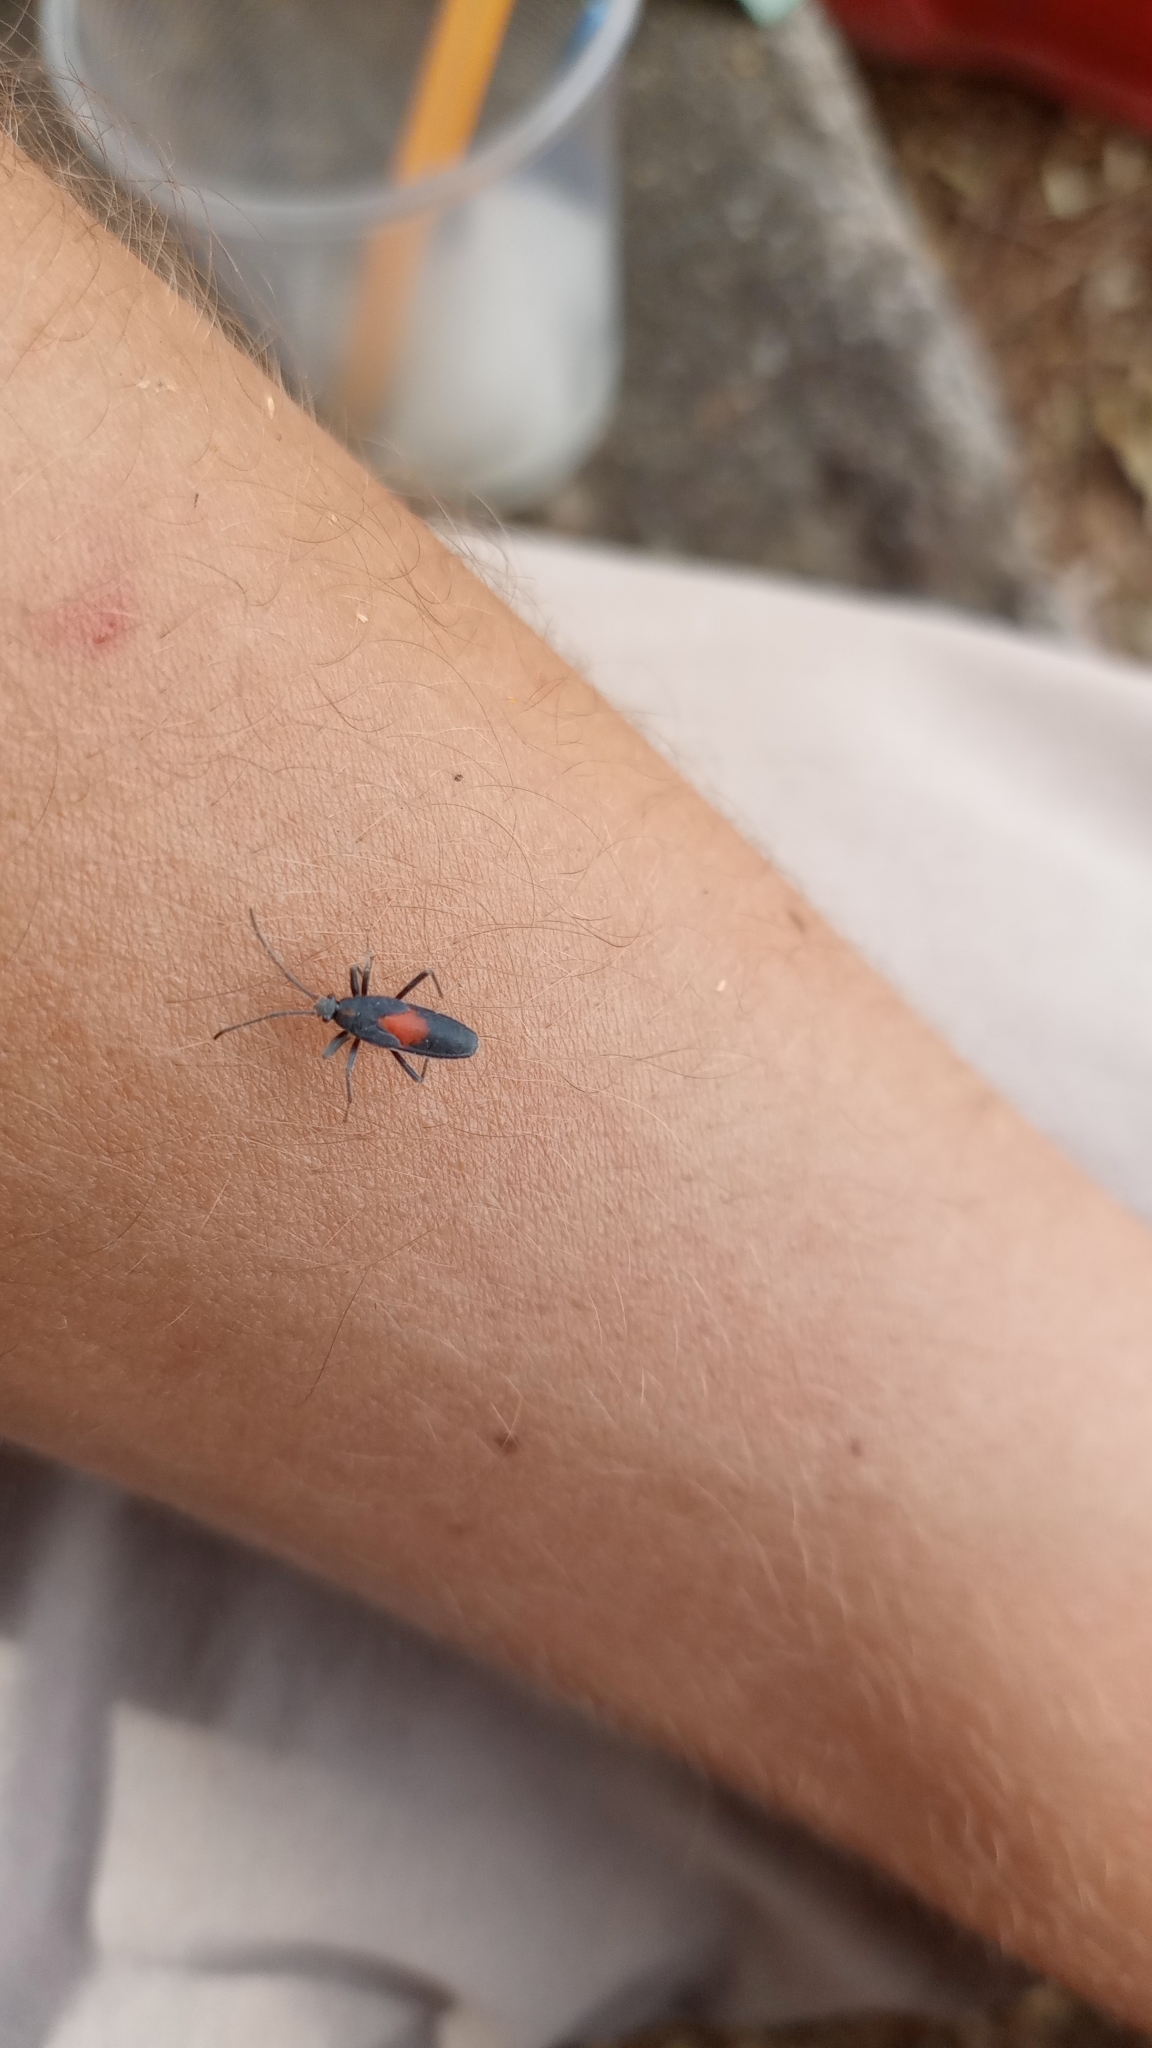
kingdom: Animalia
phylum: Arthropoda
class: Insecta
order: Hemiptera
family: Largidae
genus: Stenomacra
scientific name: Stenomacra marginella
